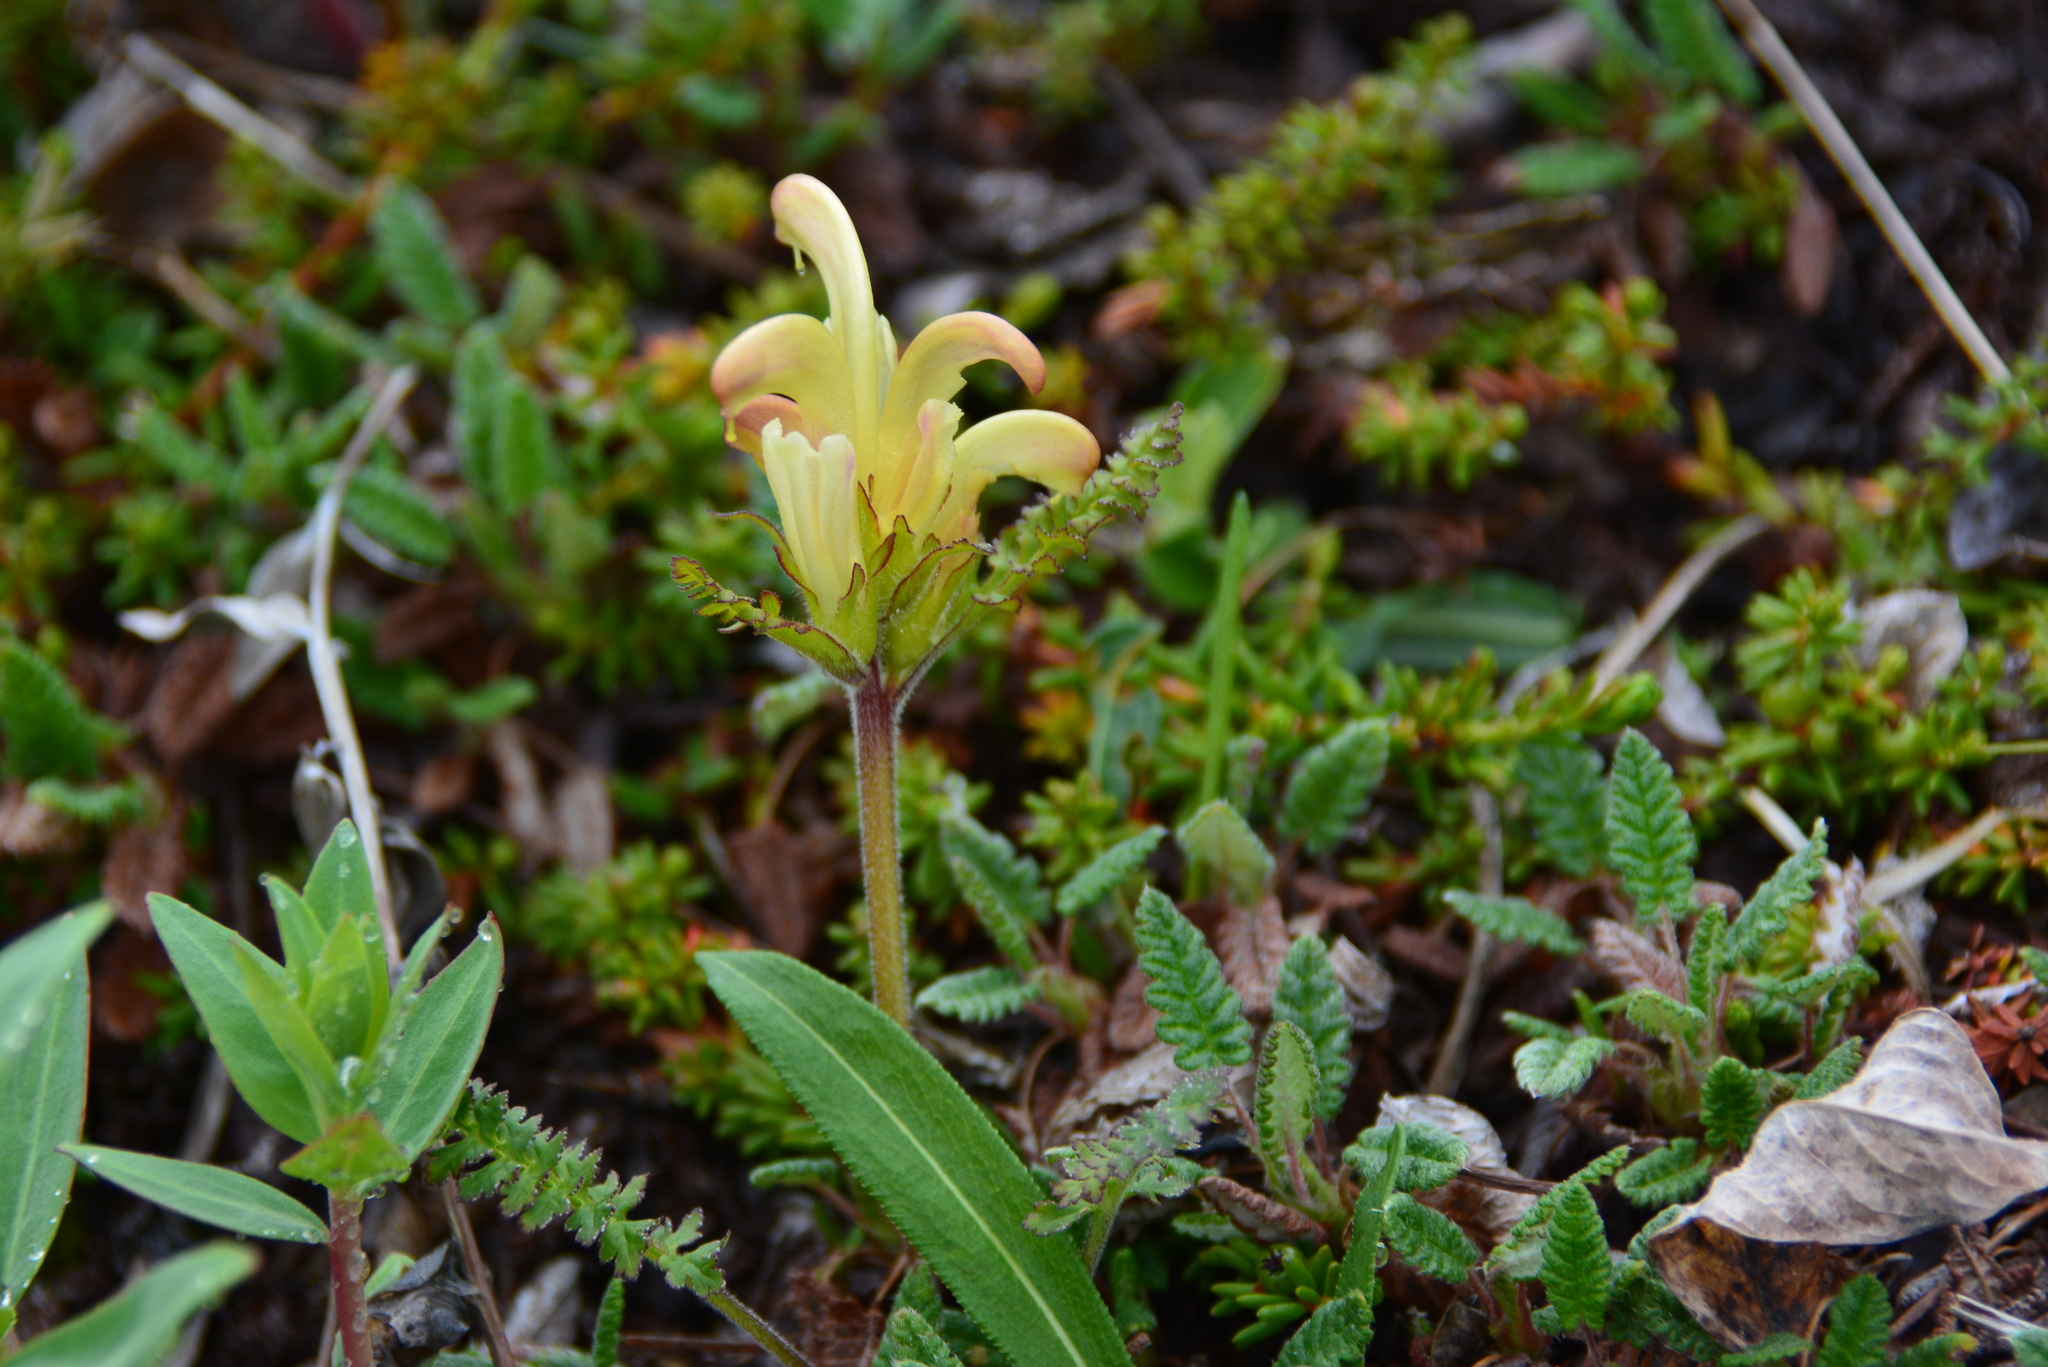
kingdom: Plantae
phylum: Tracheophyta
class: Magnoliopsida
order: Lamiales
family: Orobanchaceae
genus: Pedicularis
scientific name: Pedicularis capitata
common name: Capitate lousewort
